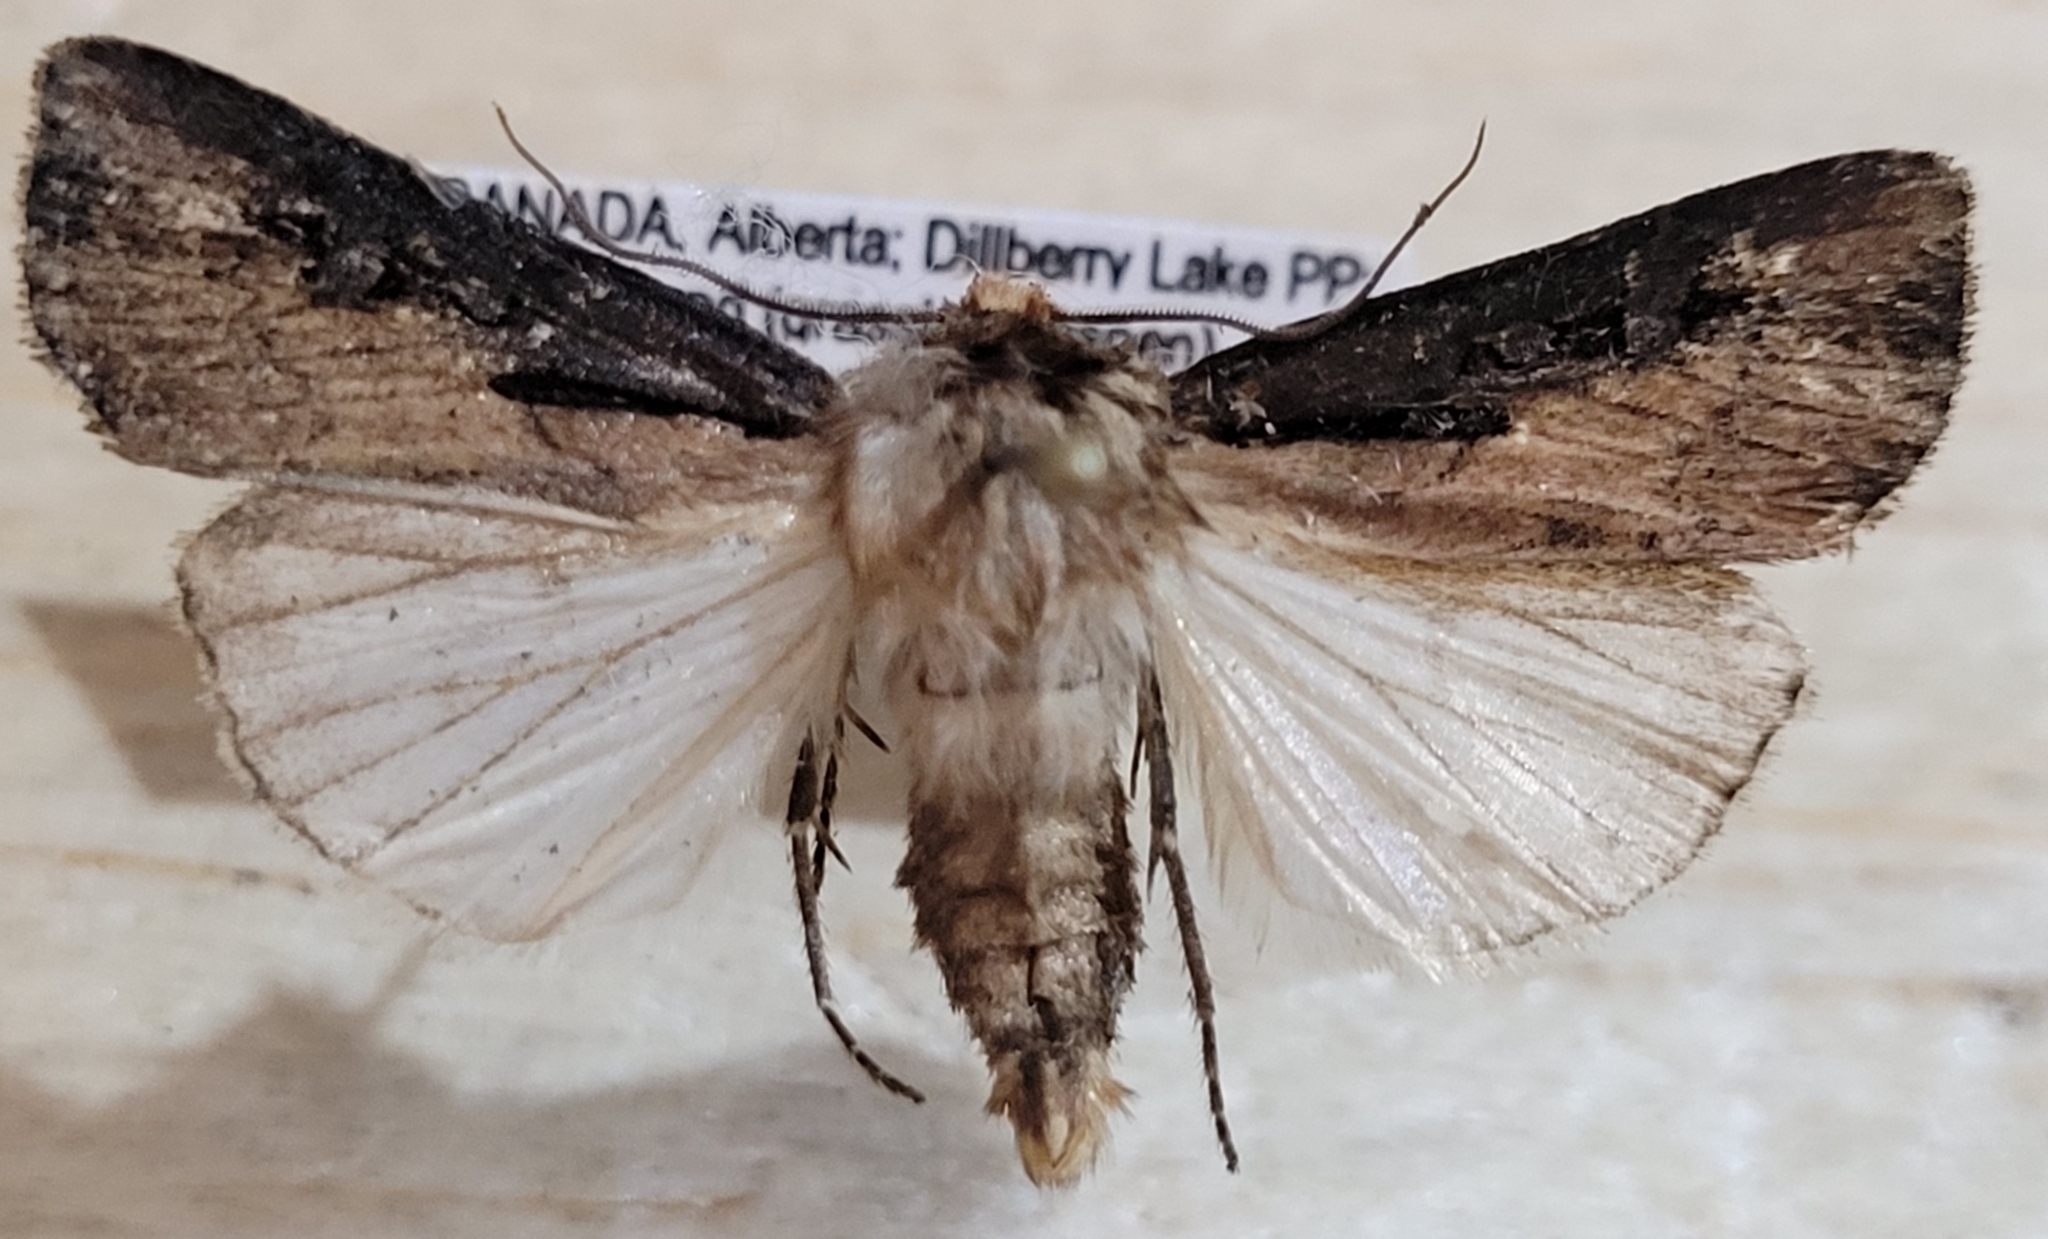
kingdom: Animalia
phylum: Arthropoda
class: Insecta
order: Lepidoptera
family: Noctuidae
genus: Agrotis
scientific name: Agrotis volubilis
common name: Voluble dart
